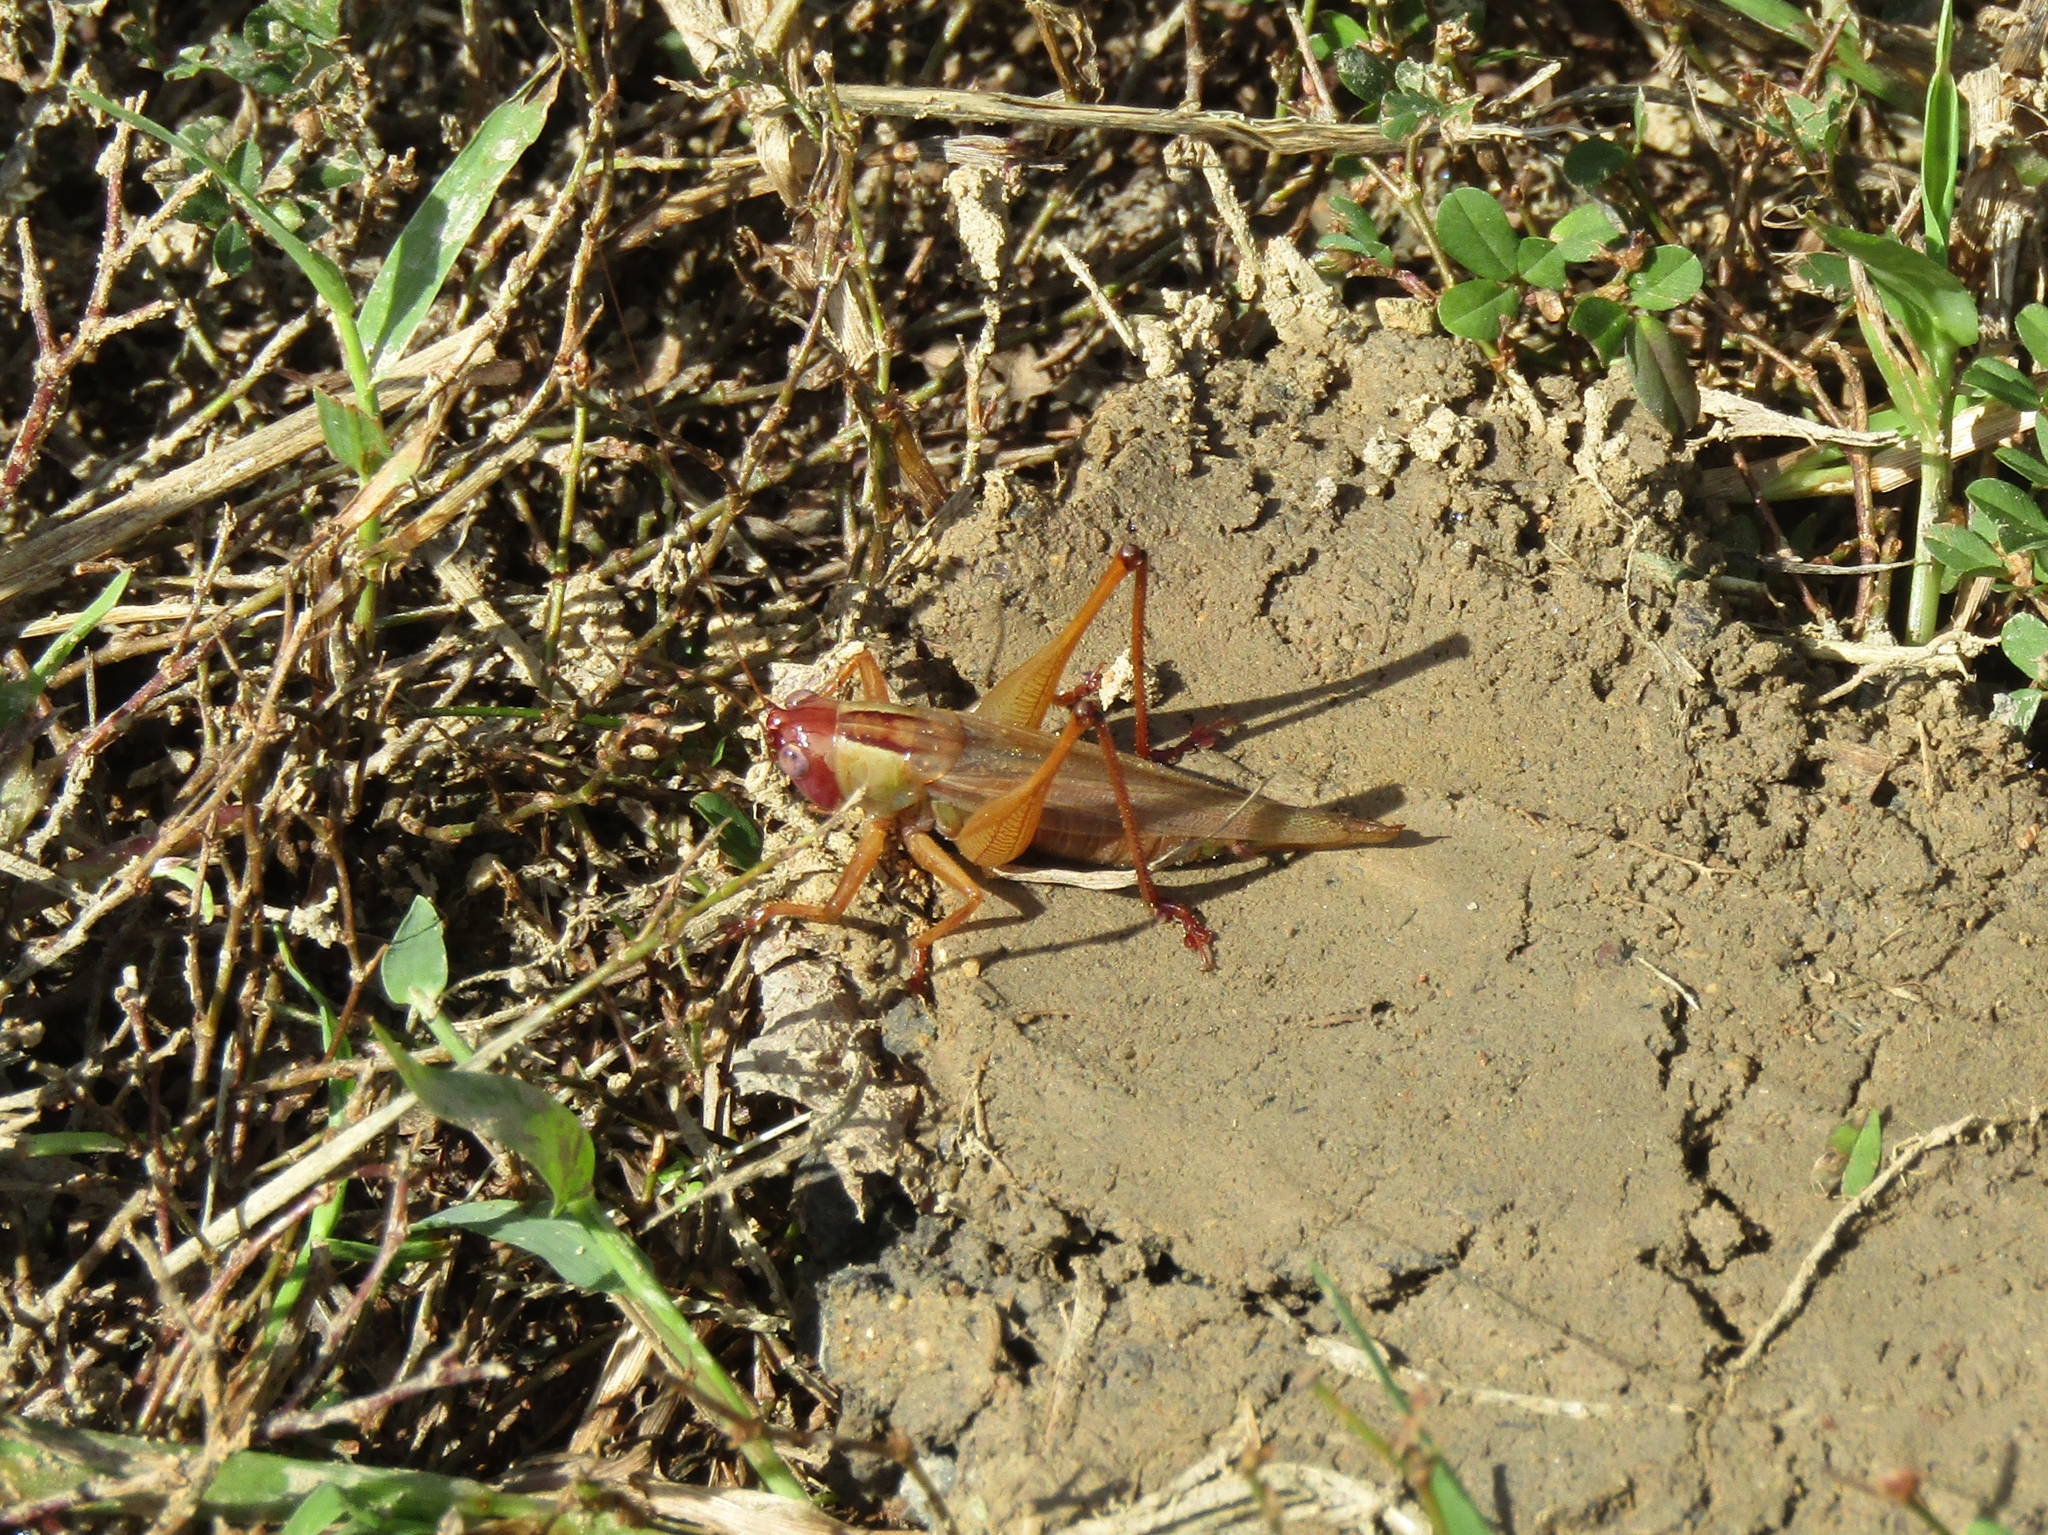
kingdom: Animalia
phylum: Arthropoda
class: Insecta
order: Orthoptera
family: Tettigoniidae
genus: Orchelimum
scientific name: Orchelimum erythrocephalum
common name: Red-headed meadow katydid
